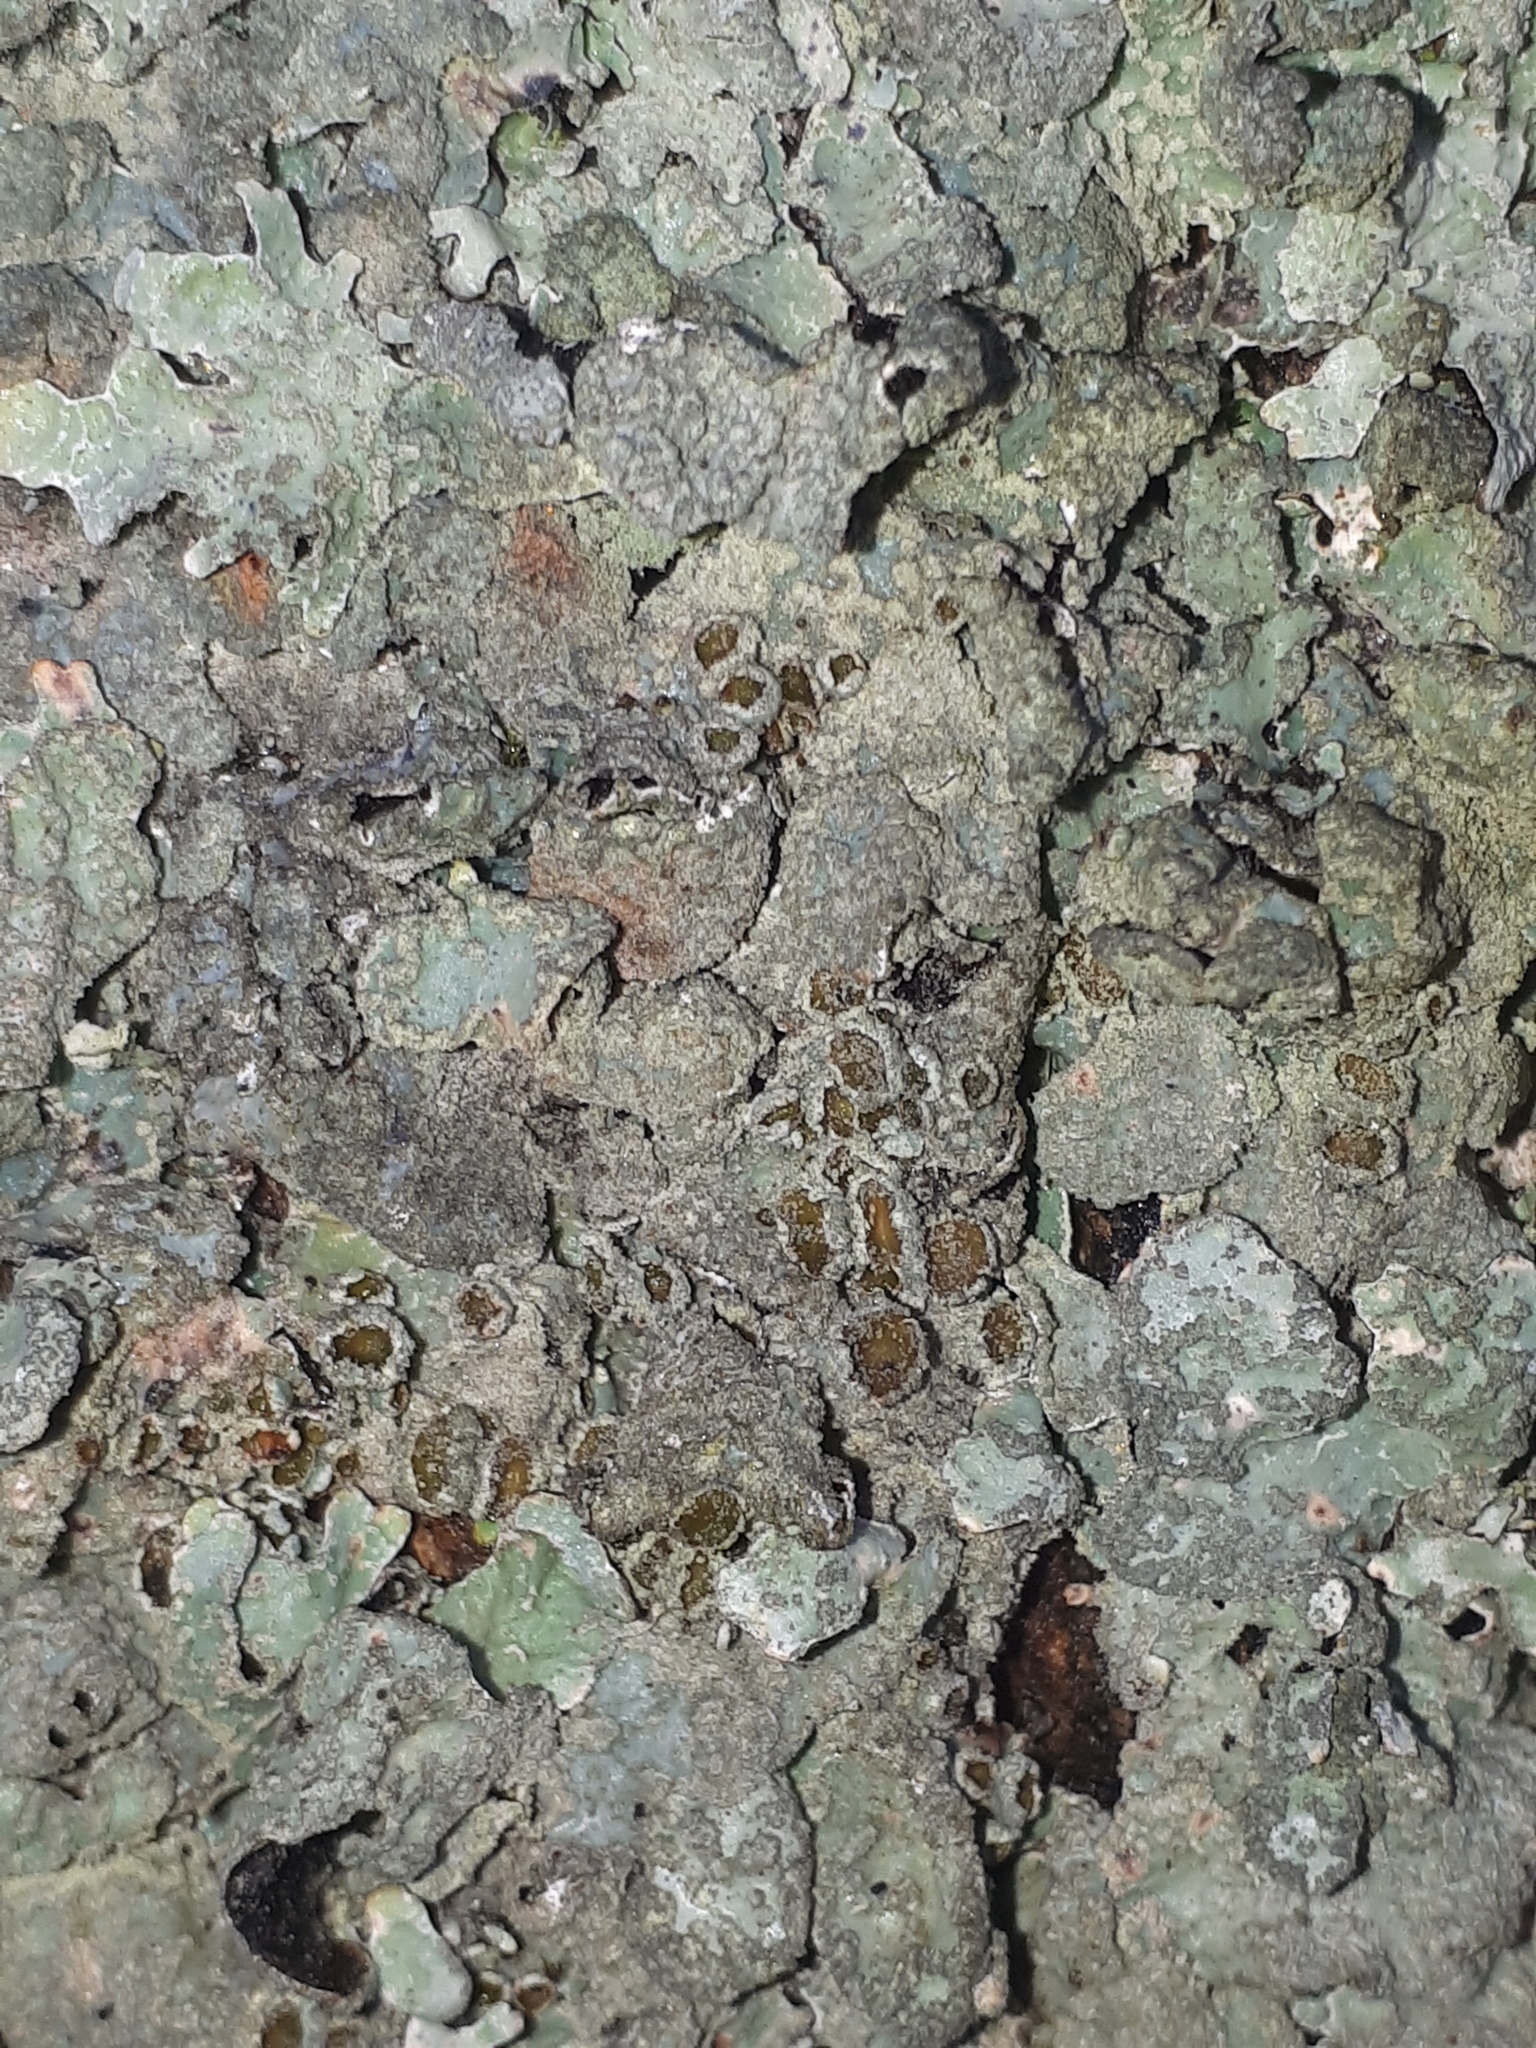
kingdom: Fungi
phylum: Ascomycota
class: Lecanoromycetes
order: Lecanorales
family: Parmeliaceae
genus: Parmelia
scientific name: Parmelia sulcata
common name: Netted shield lichen
